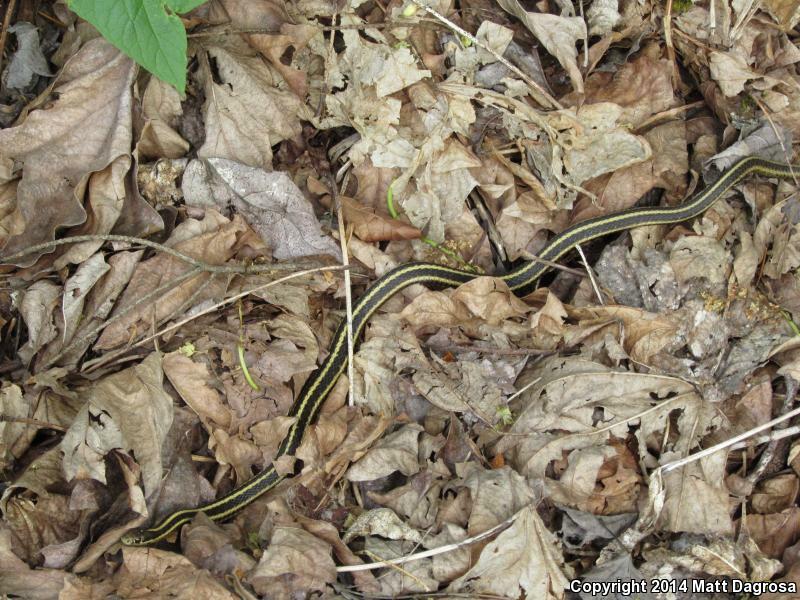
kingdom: Animalia
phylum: Chordata
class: Squamata
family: Colubridae
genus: Thamnophis
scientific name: Thamnophis ordinoides
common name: Northwestern garter snake
